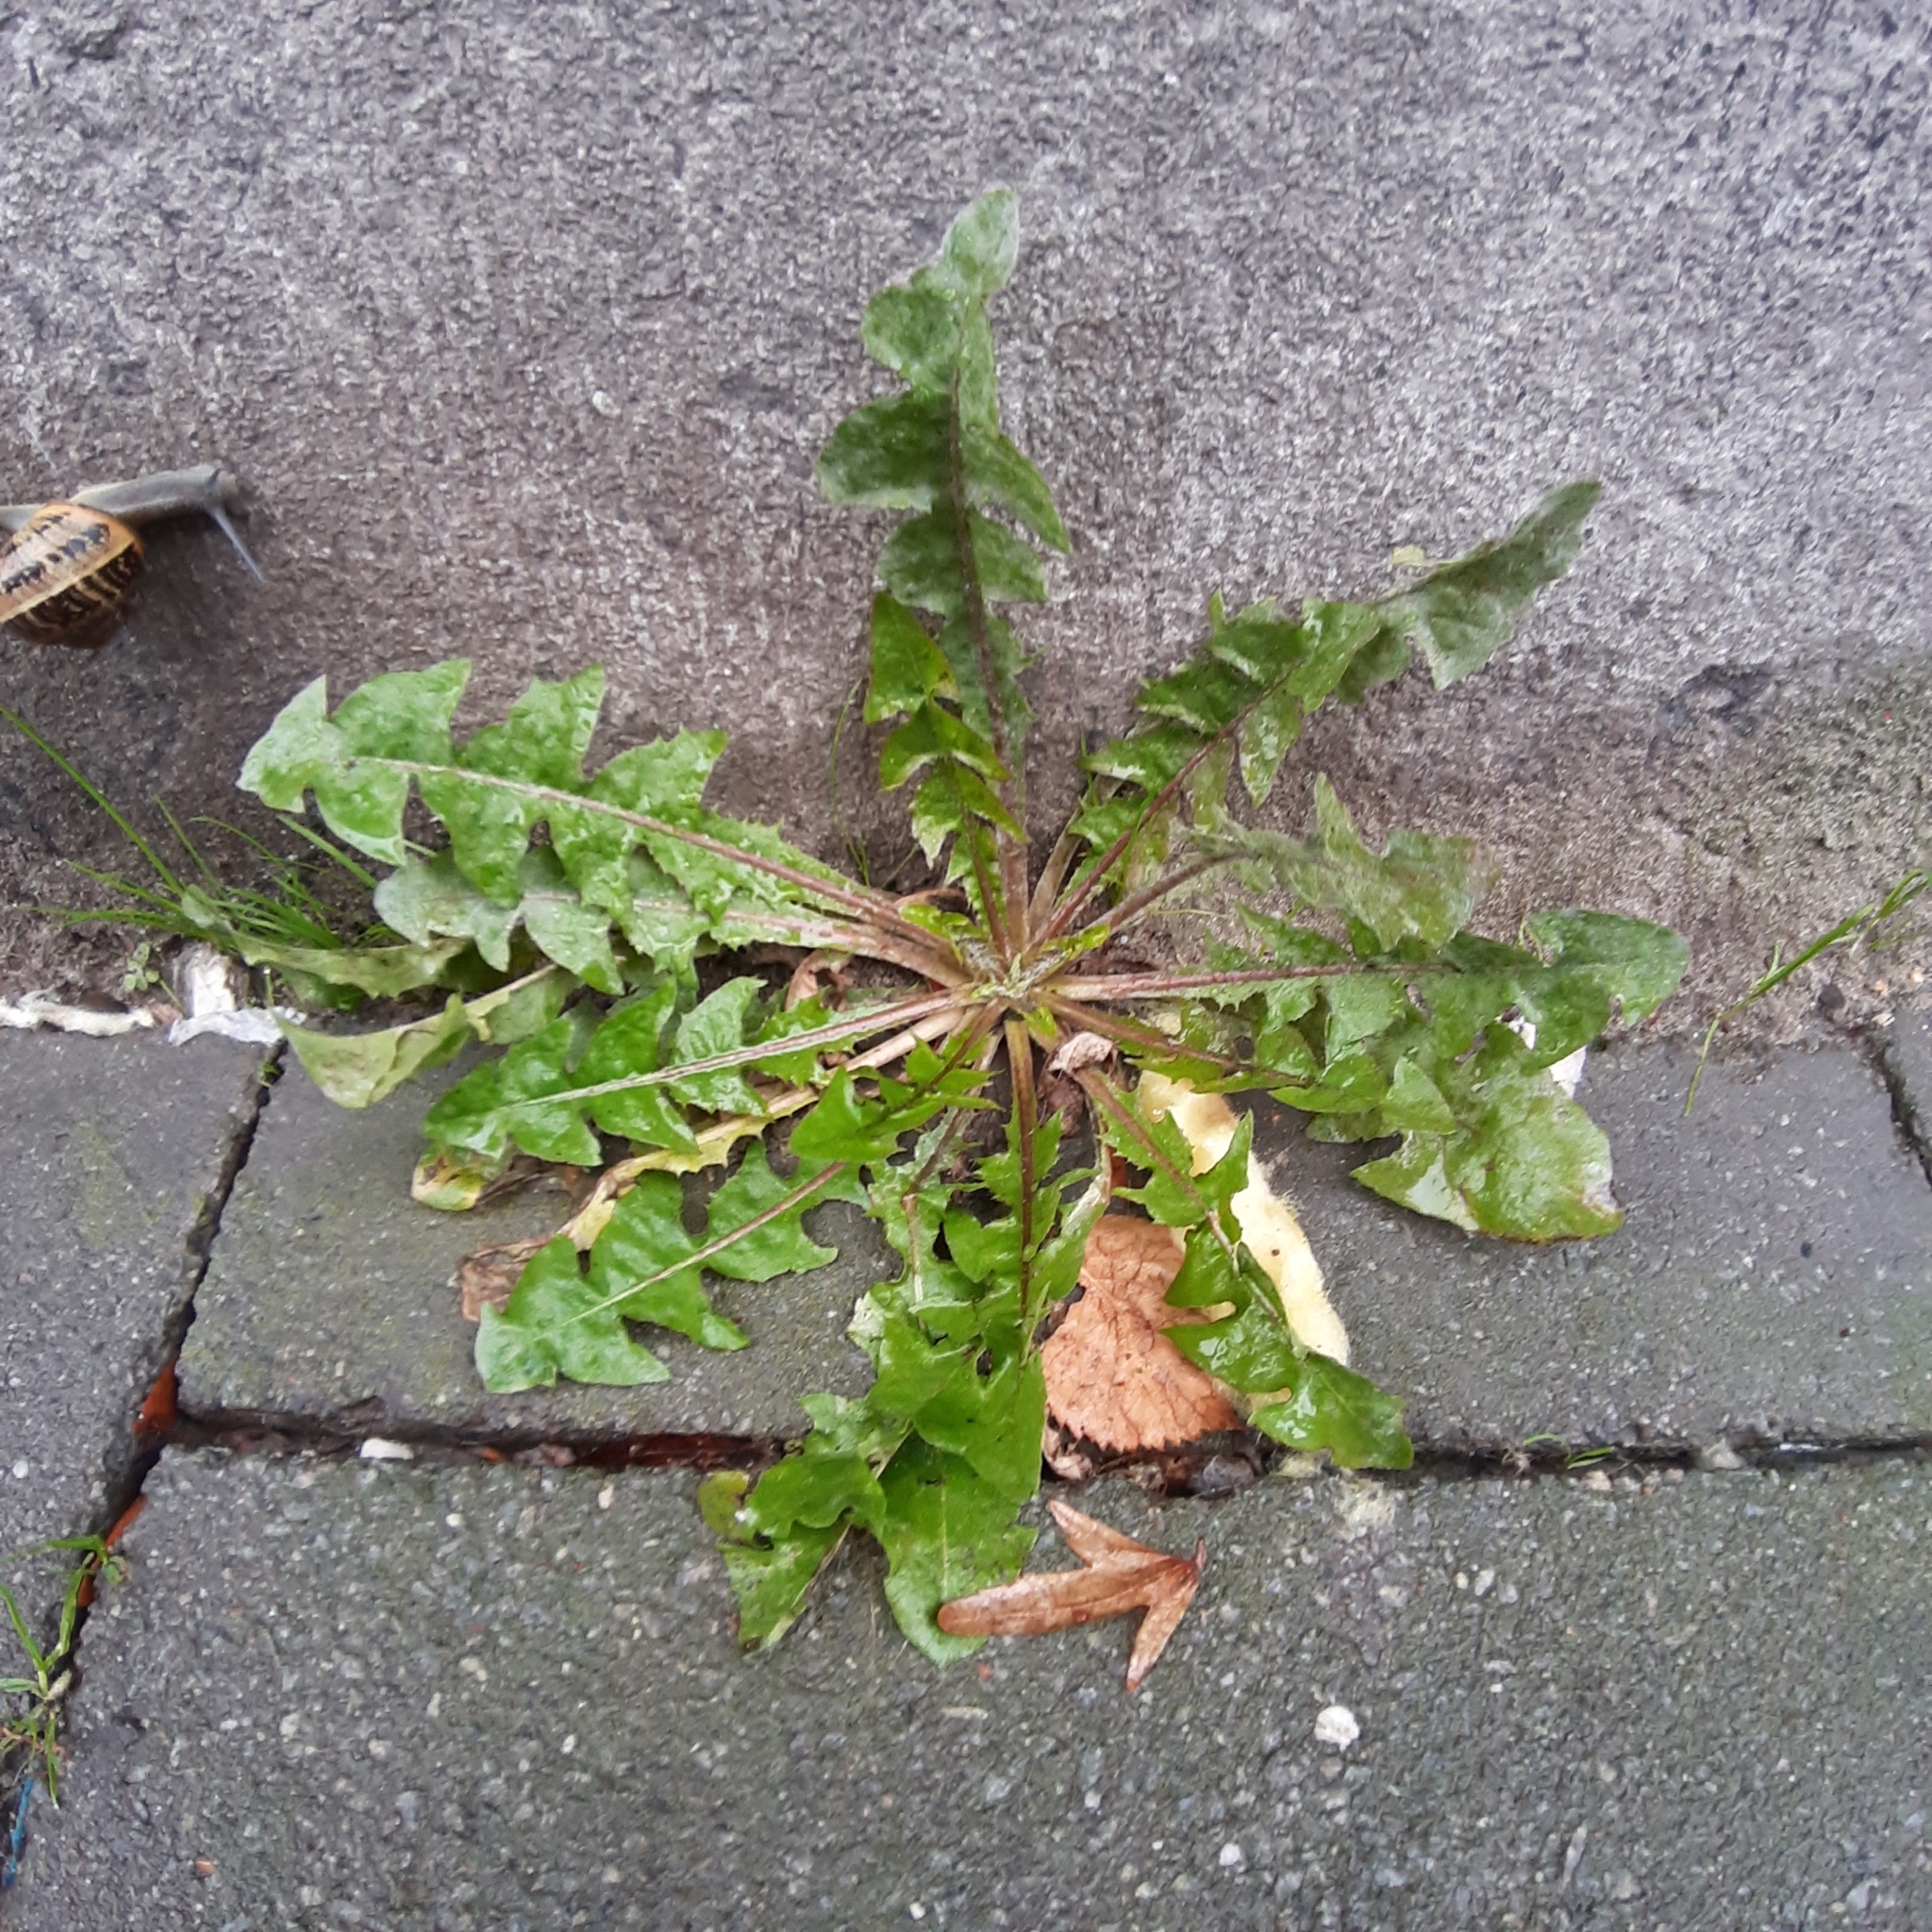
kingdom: Plantae
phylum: Tracheophyta
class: Magnoliopsida
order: Asterales
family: Asteraceae
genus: Taraxacum
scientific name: Taraxacum officinale
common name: Common dandelion
